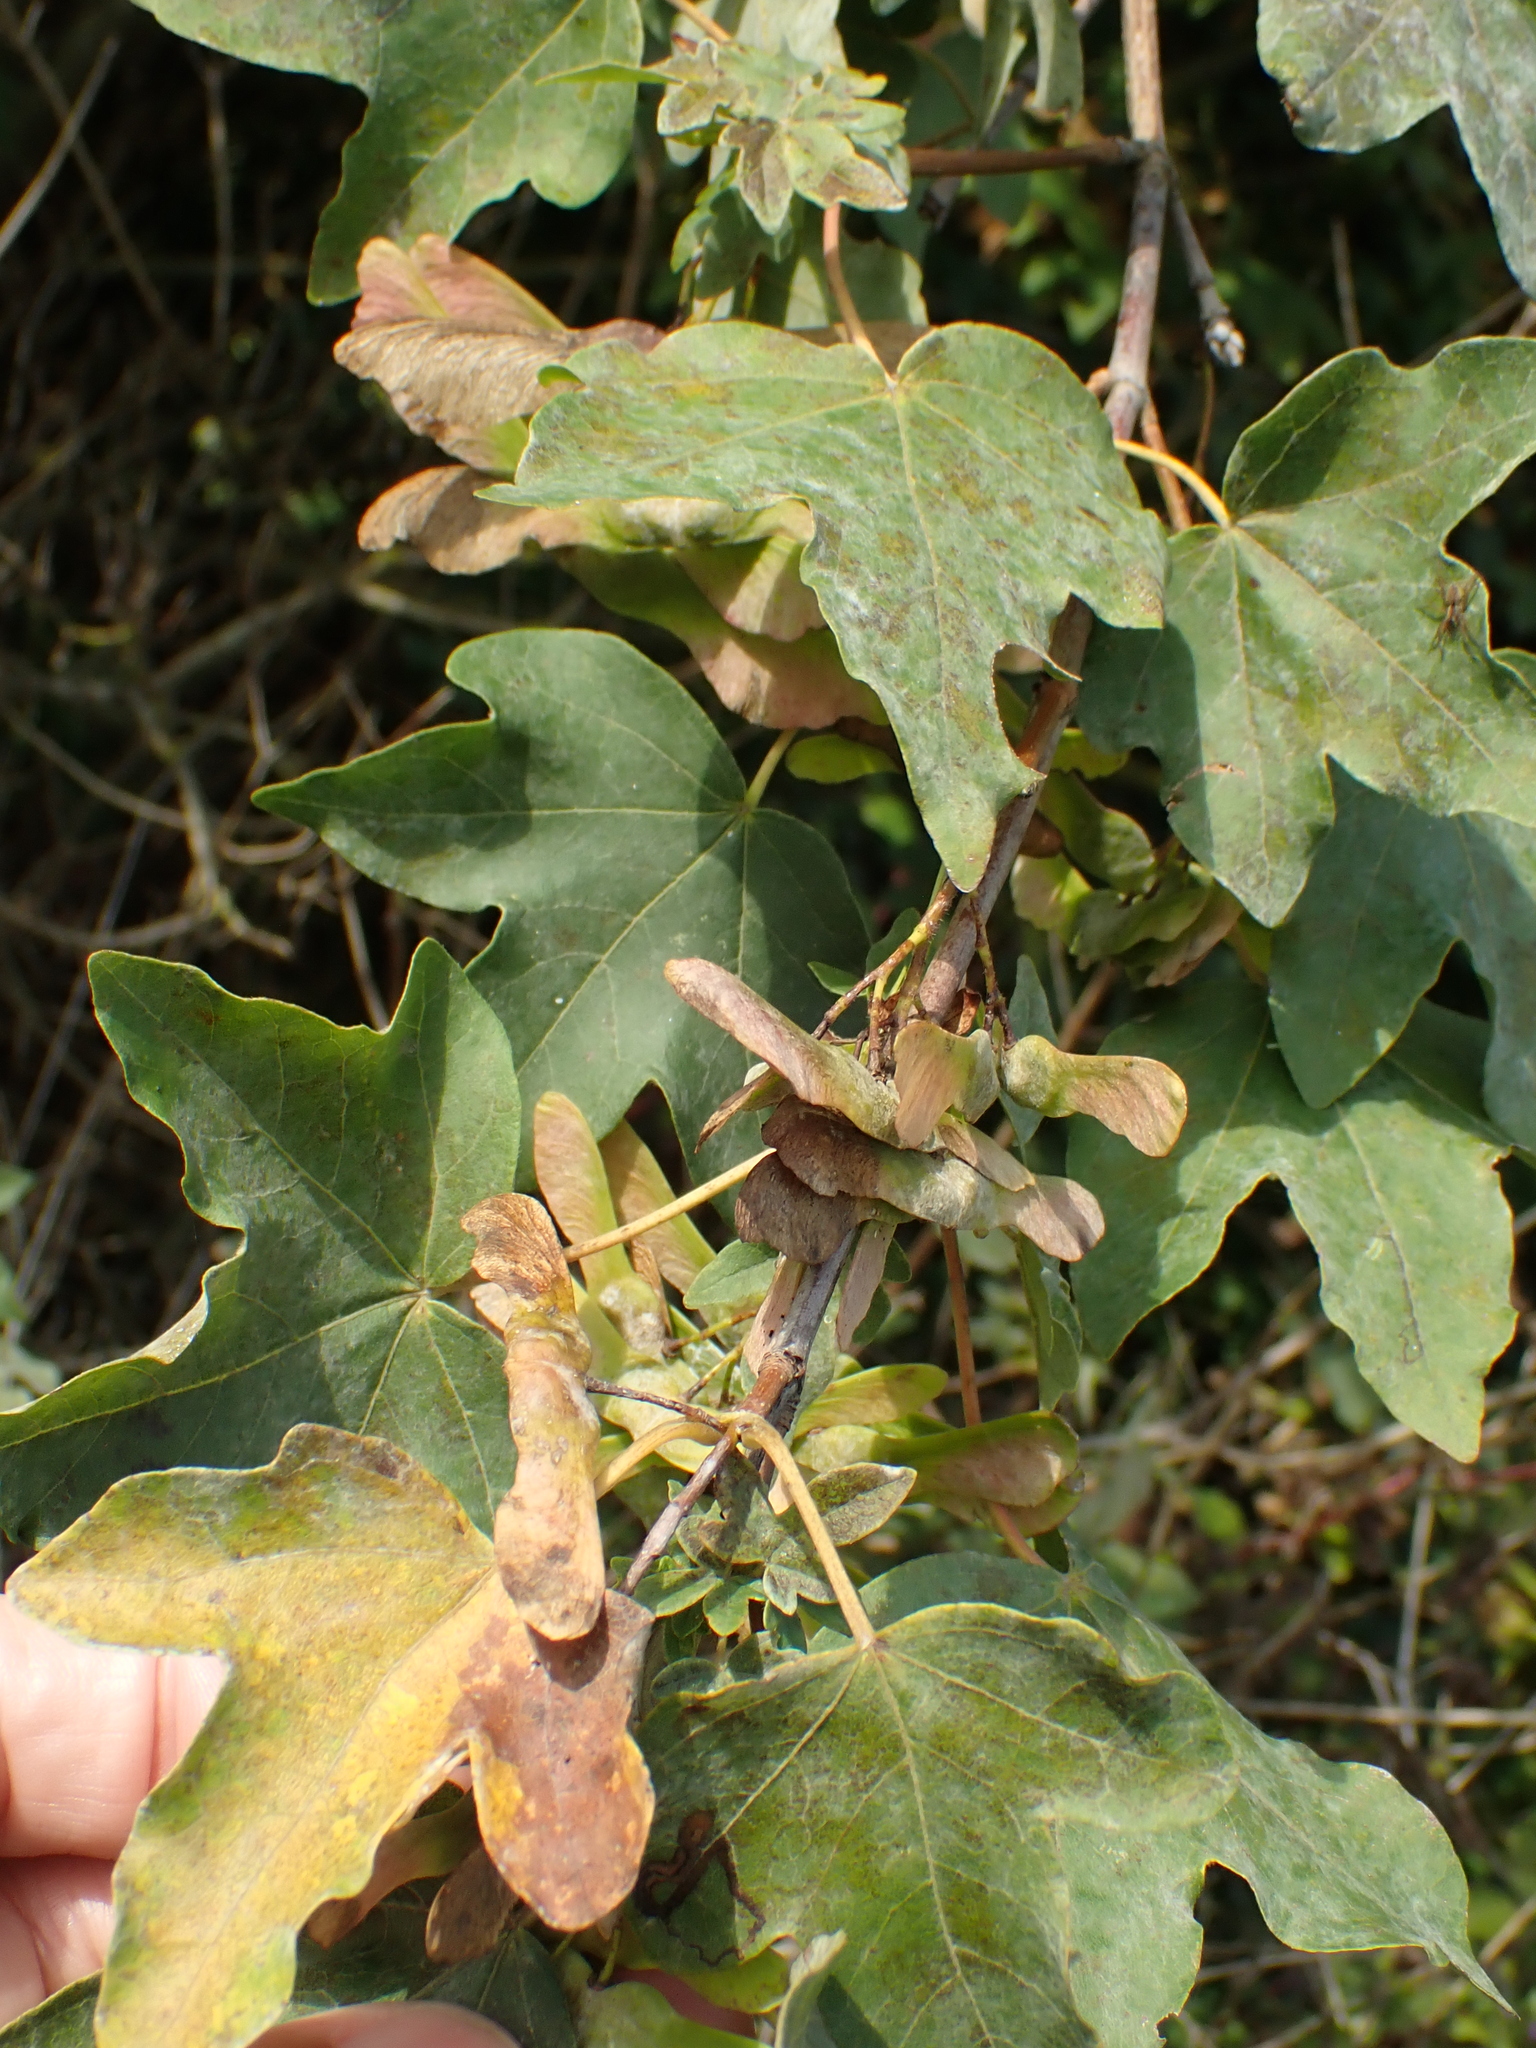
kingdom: Plantae
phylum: Tracheophyta
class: Magnoliopsida
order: Sapindales
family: Sapindaceae
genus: Acer
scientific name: Acer campestre
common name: Field maple
